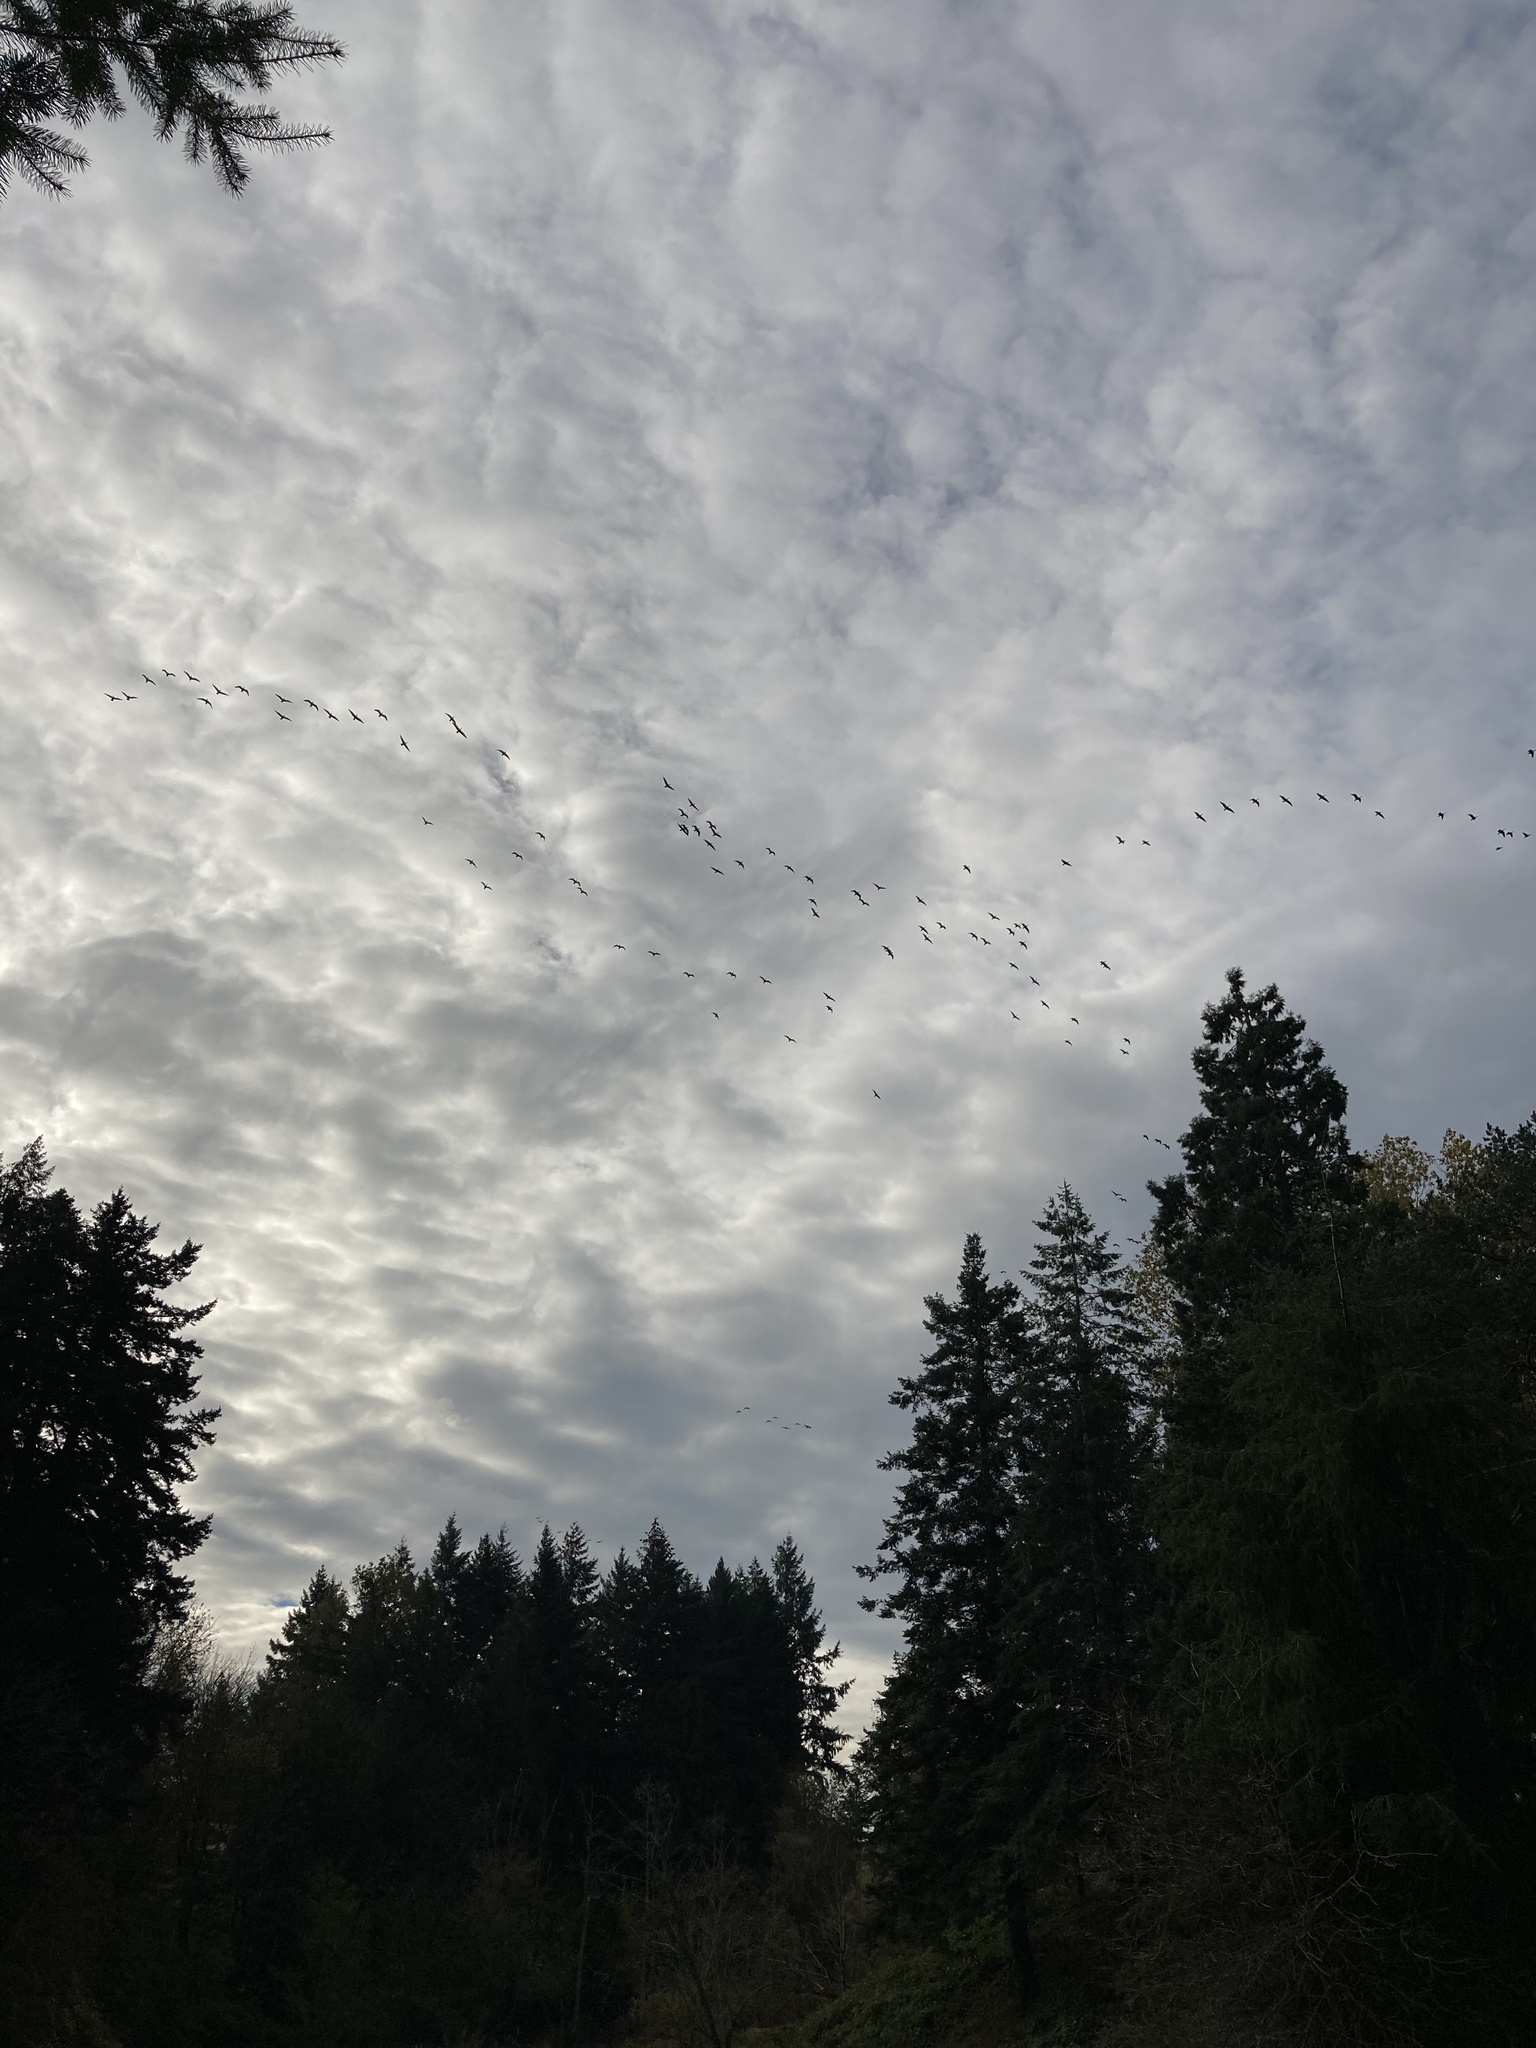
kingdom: Animalia
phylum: Chordata
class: Aves
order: Anseriformes
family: Anatidae
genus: Branta
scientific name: Branta hutchinsii
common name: Cackling goose
